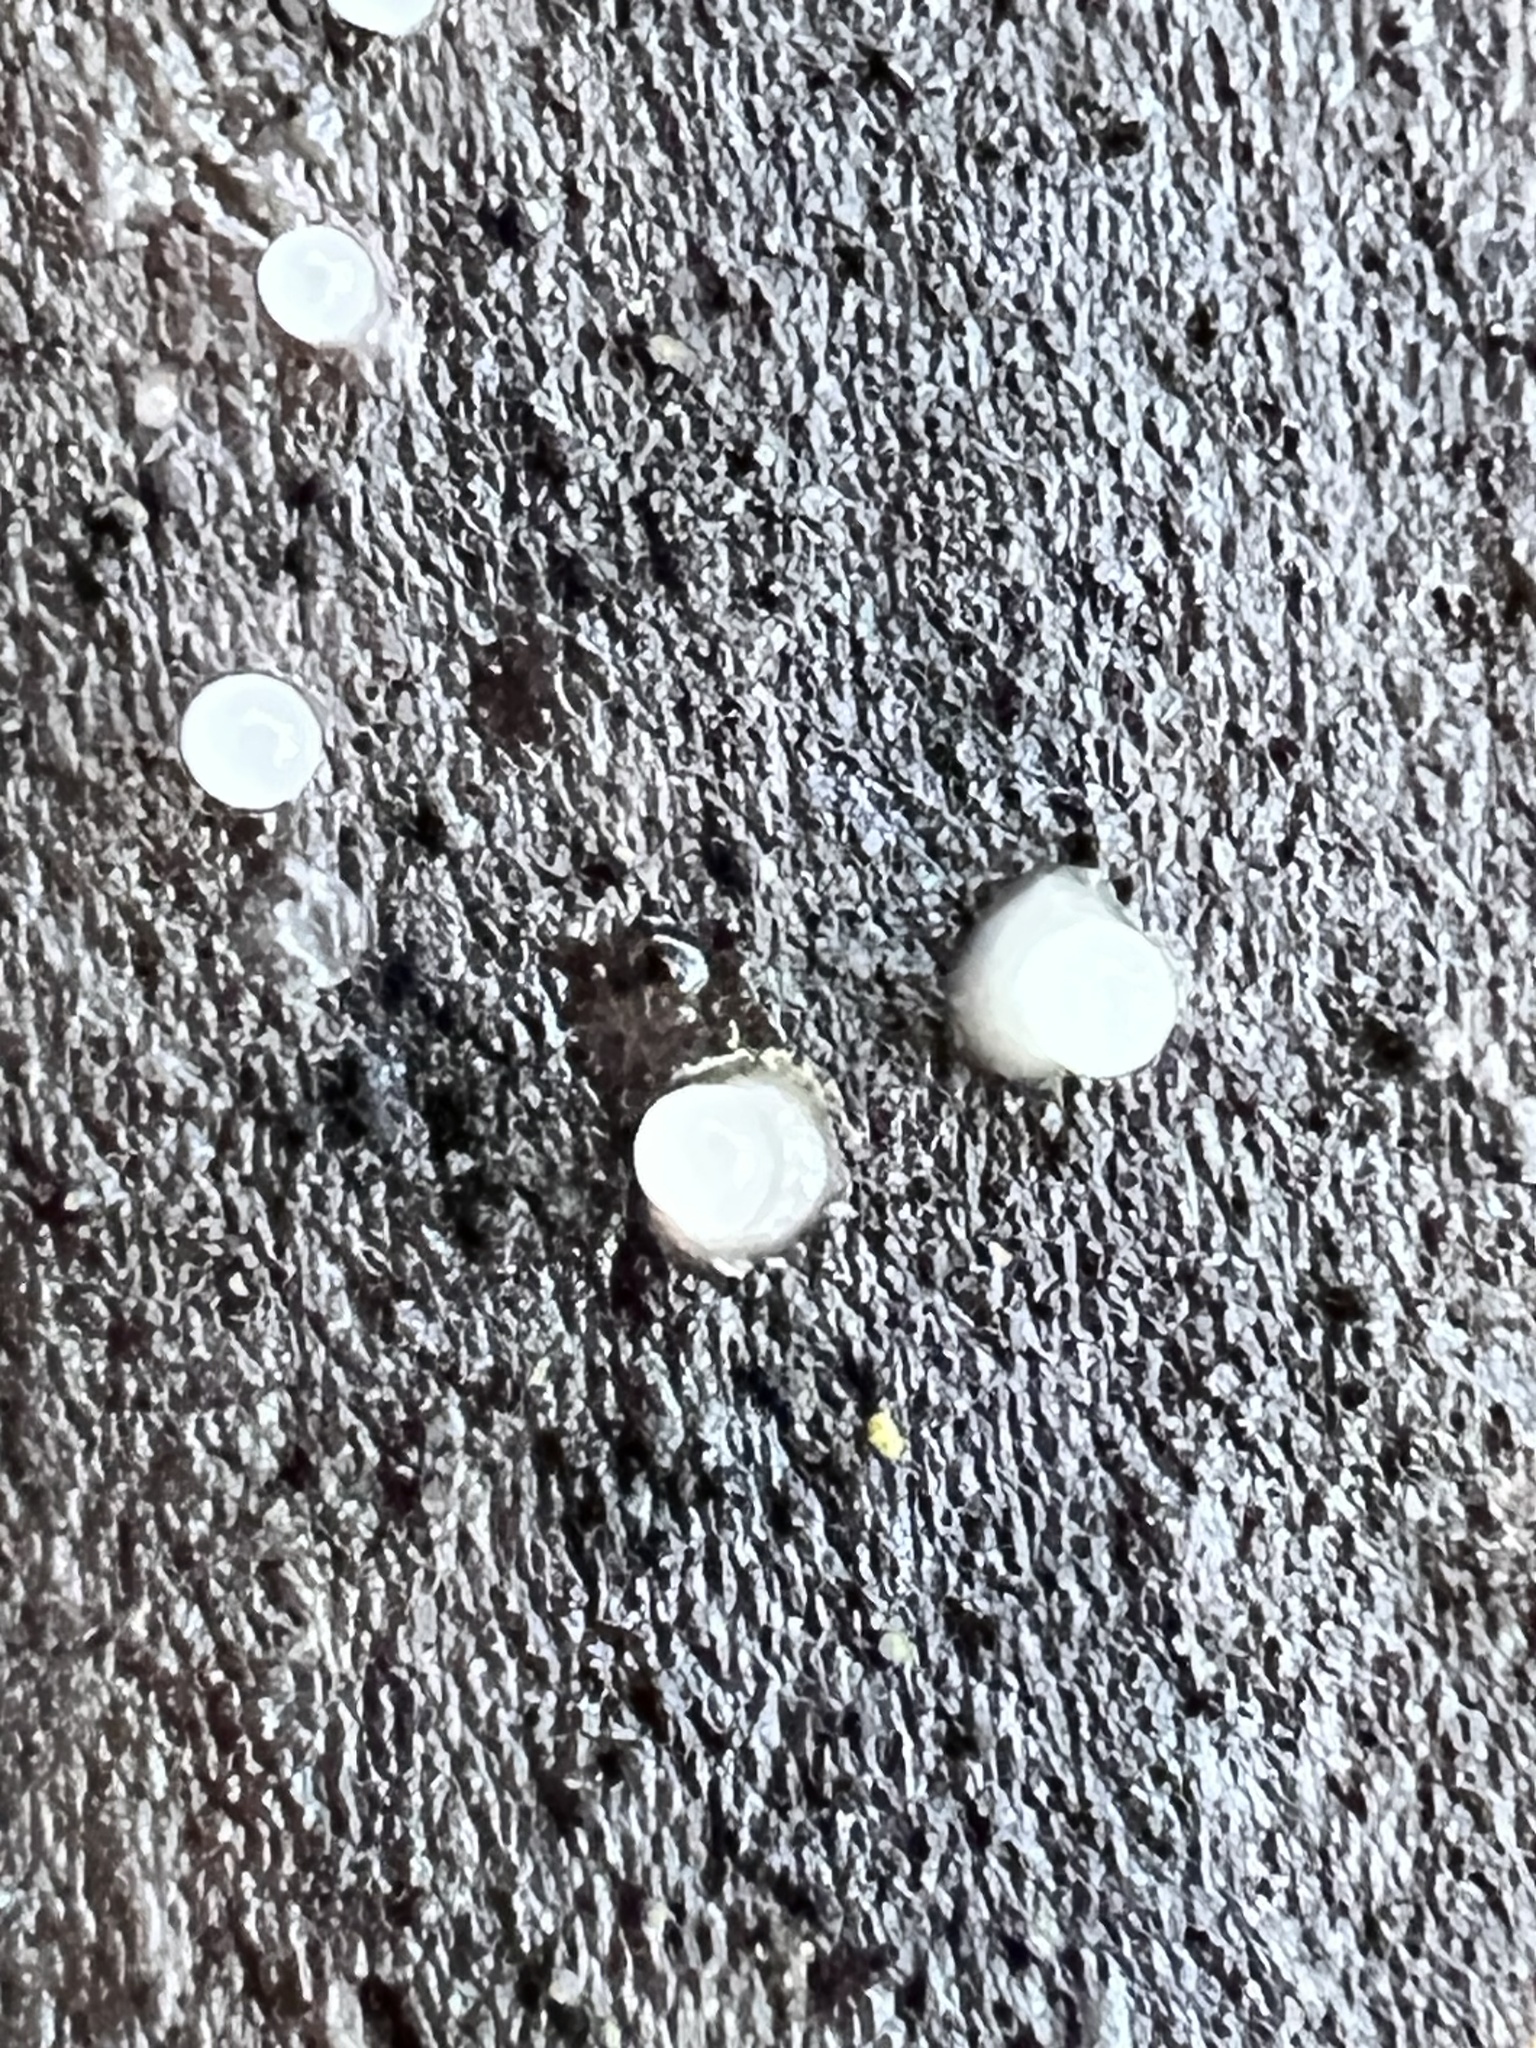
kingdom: Fungi
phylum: Basidiomycota
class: Atractiellomycetes
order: Atractiellales
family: Phleogenaceae
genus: Helicogloea
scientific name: Helicogloea compressa
